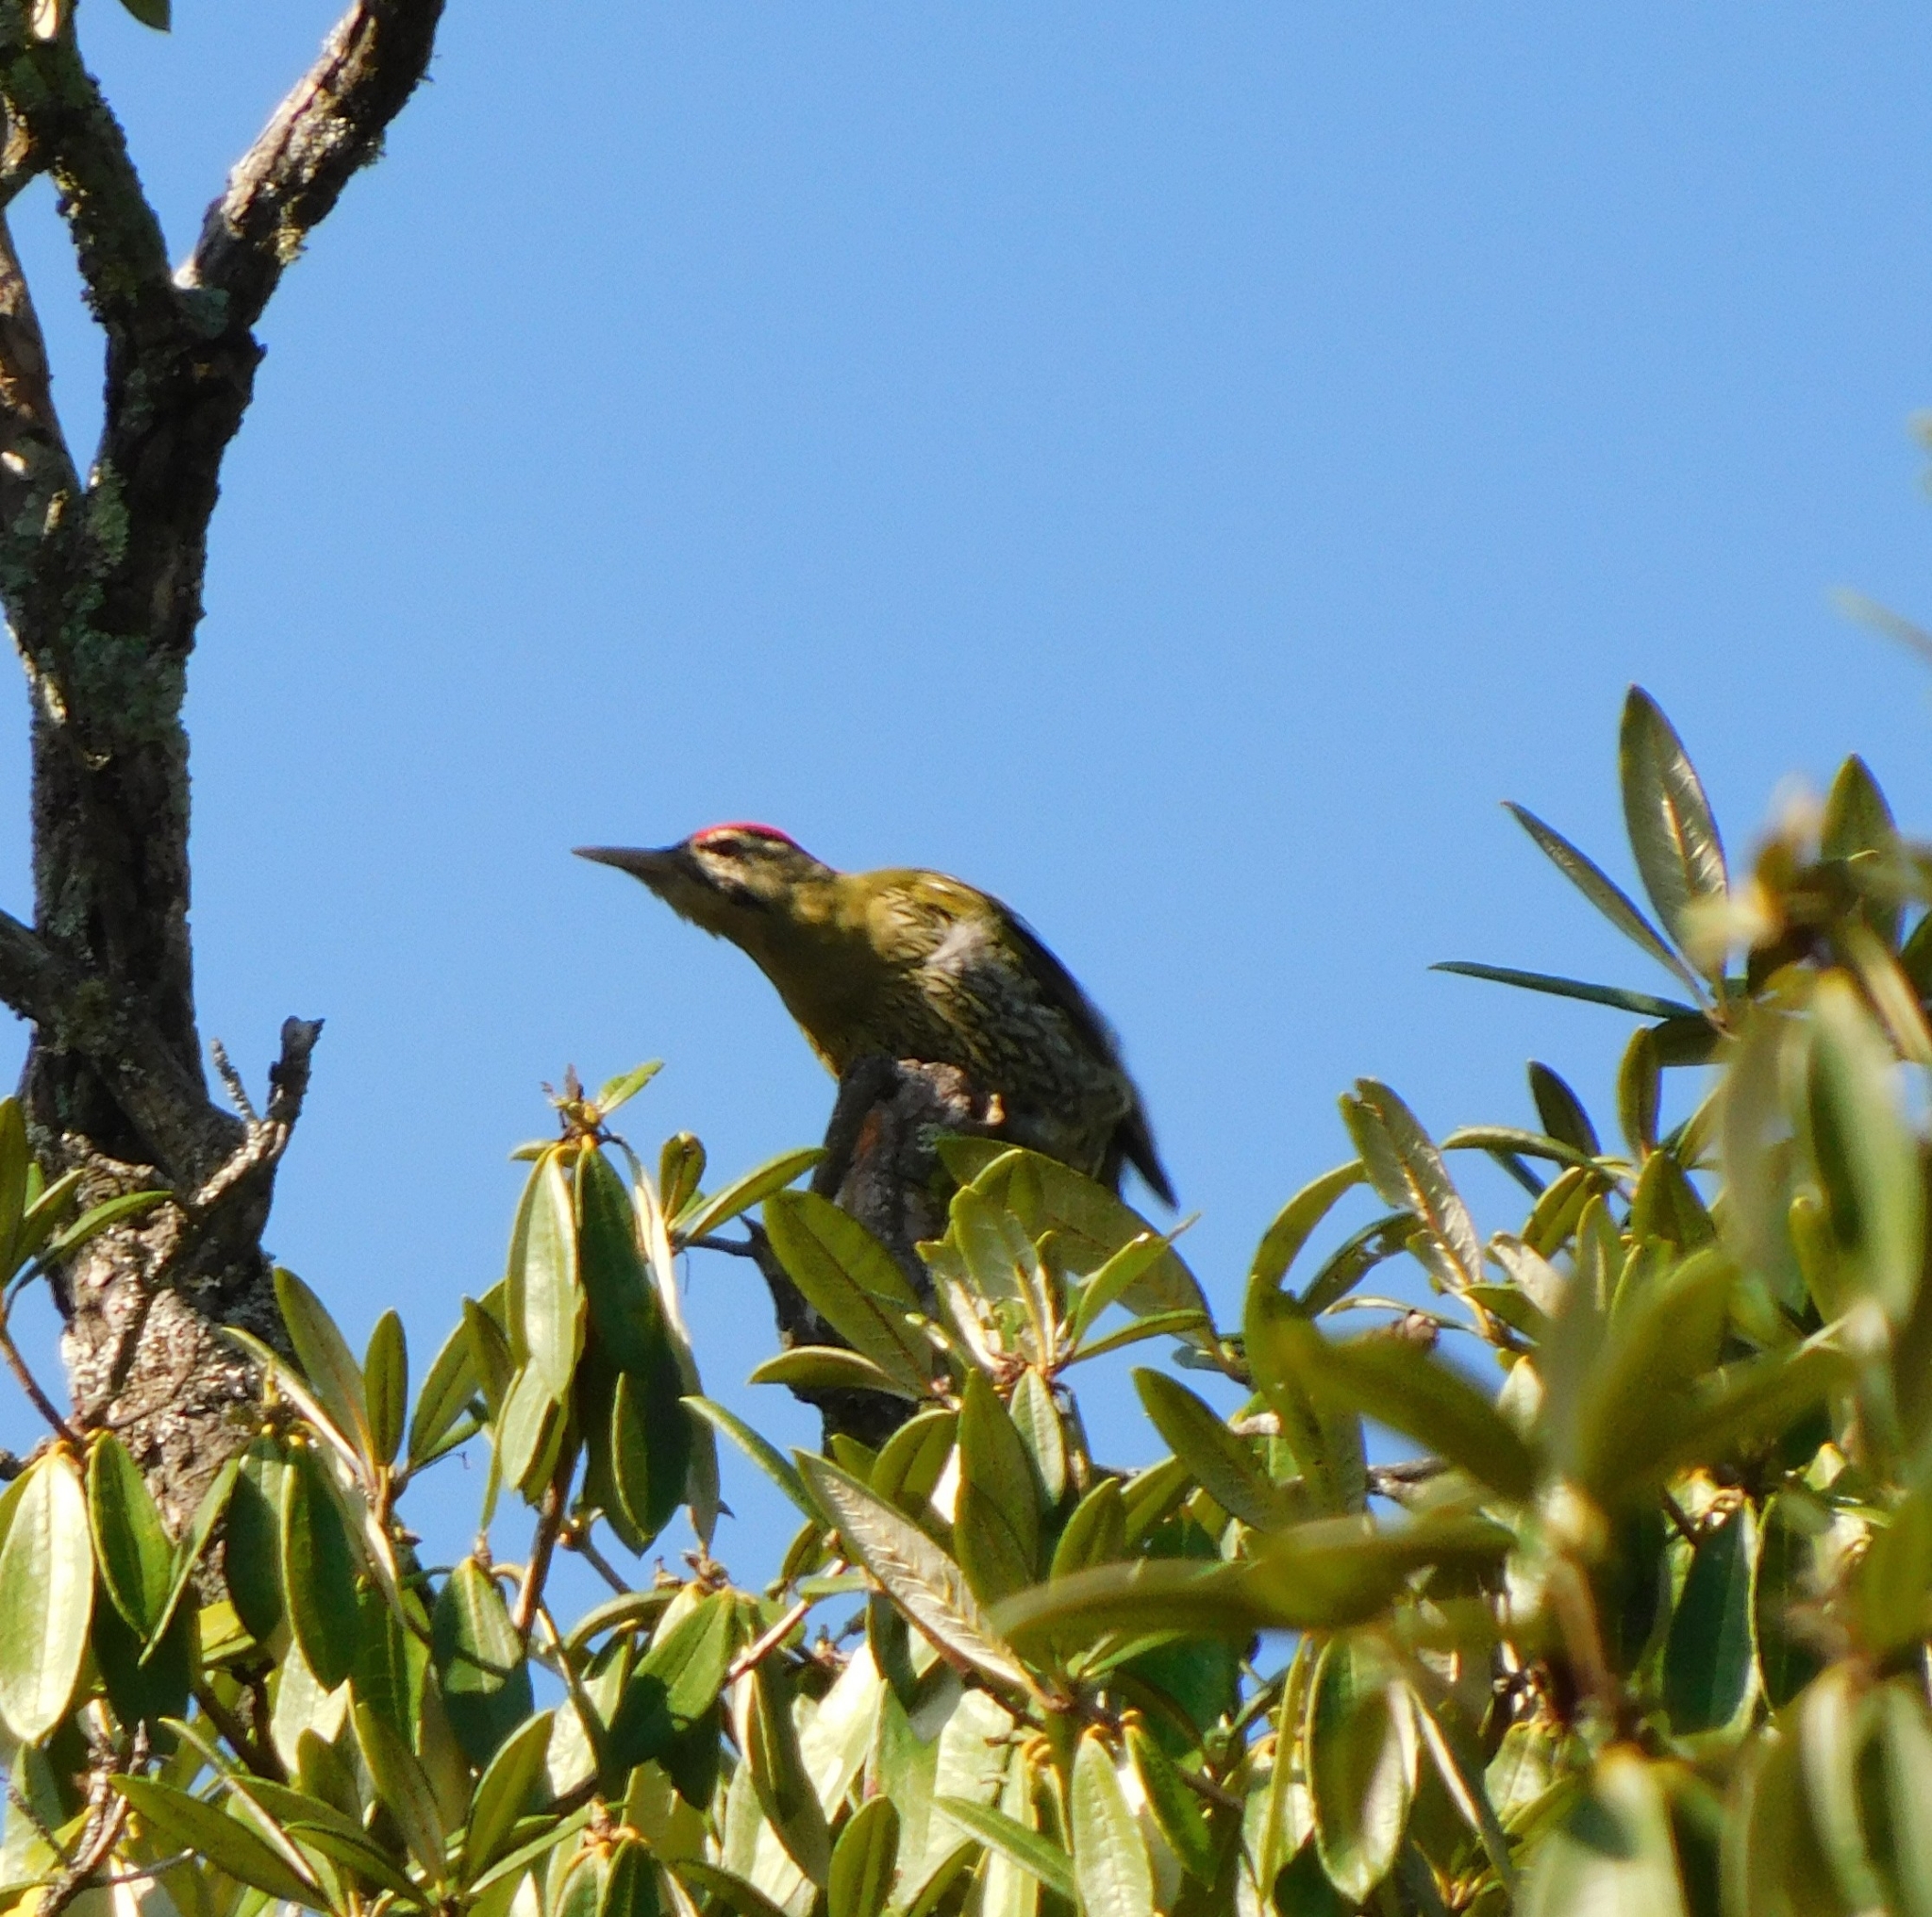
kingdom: Animalia
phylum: Chordata
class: Aves
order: Piciformes
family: Picidae
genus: Picus
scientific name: Picus squamatus
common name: Scaly-bellied woodpecker
